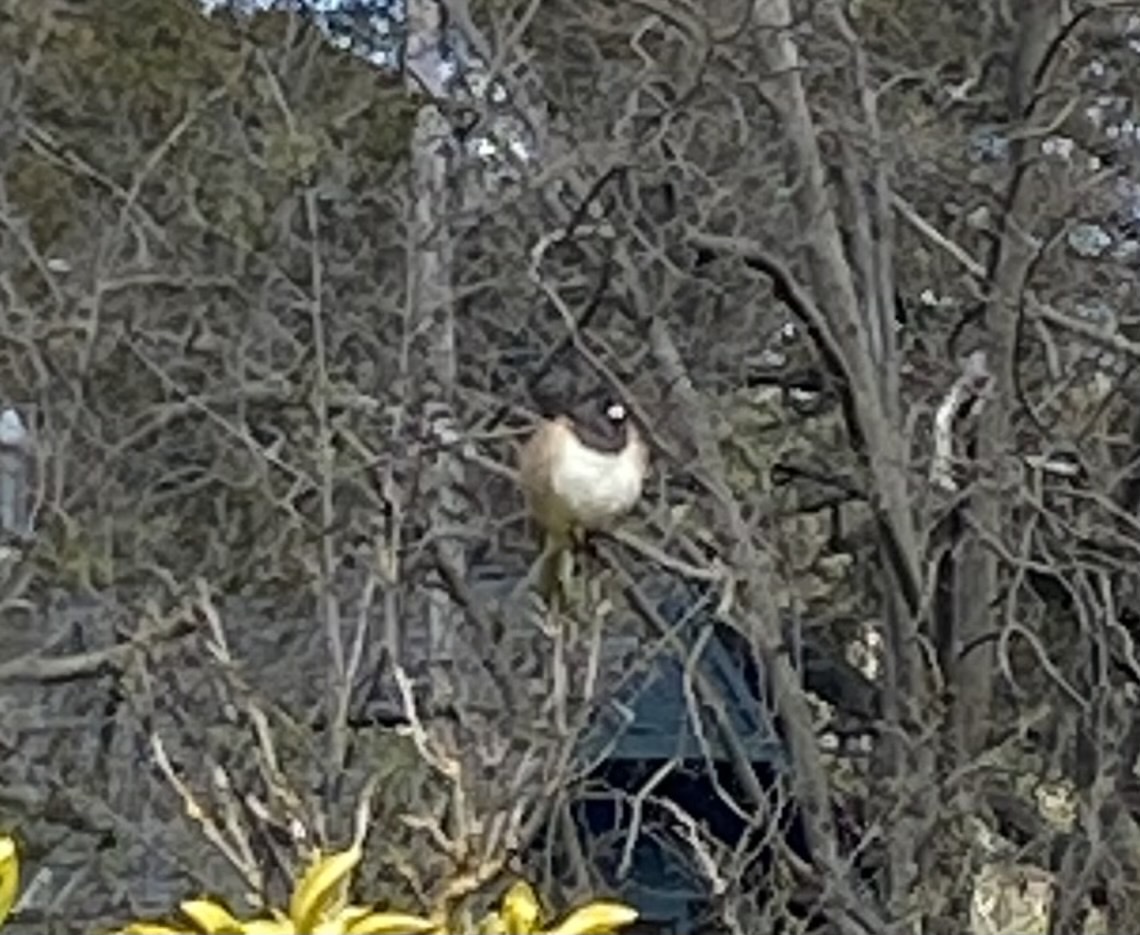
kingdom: Animalia
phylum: Chordata
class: Aves
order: Passeriformes
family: Passerellidae
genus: Junco
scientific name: Junco hyemalis
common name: Dark-eyed junco
